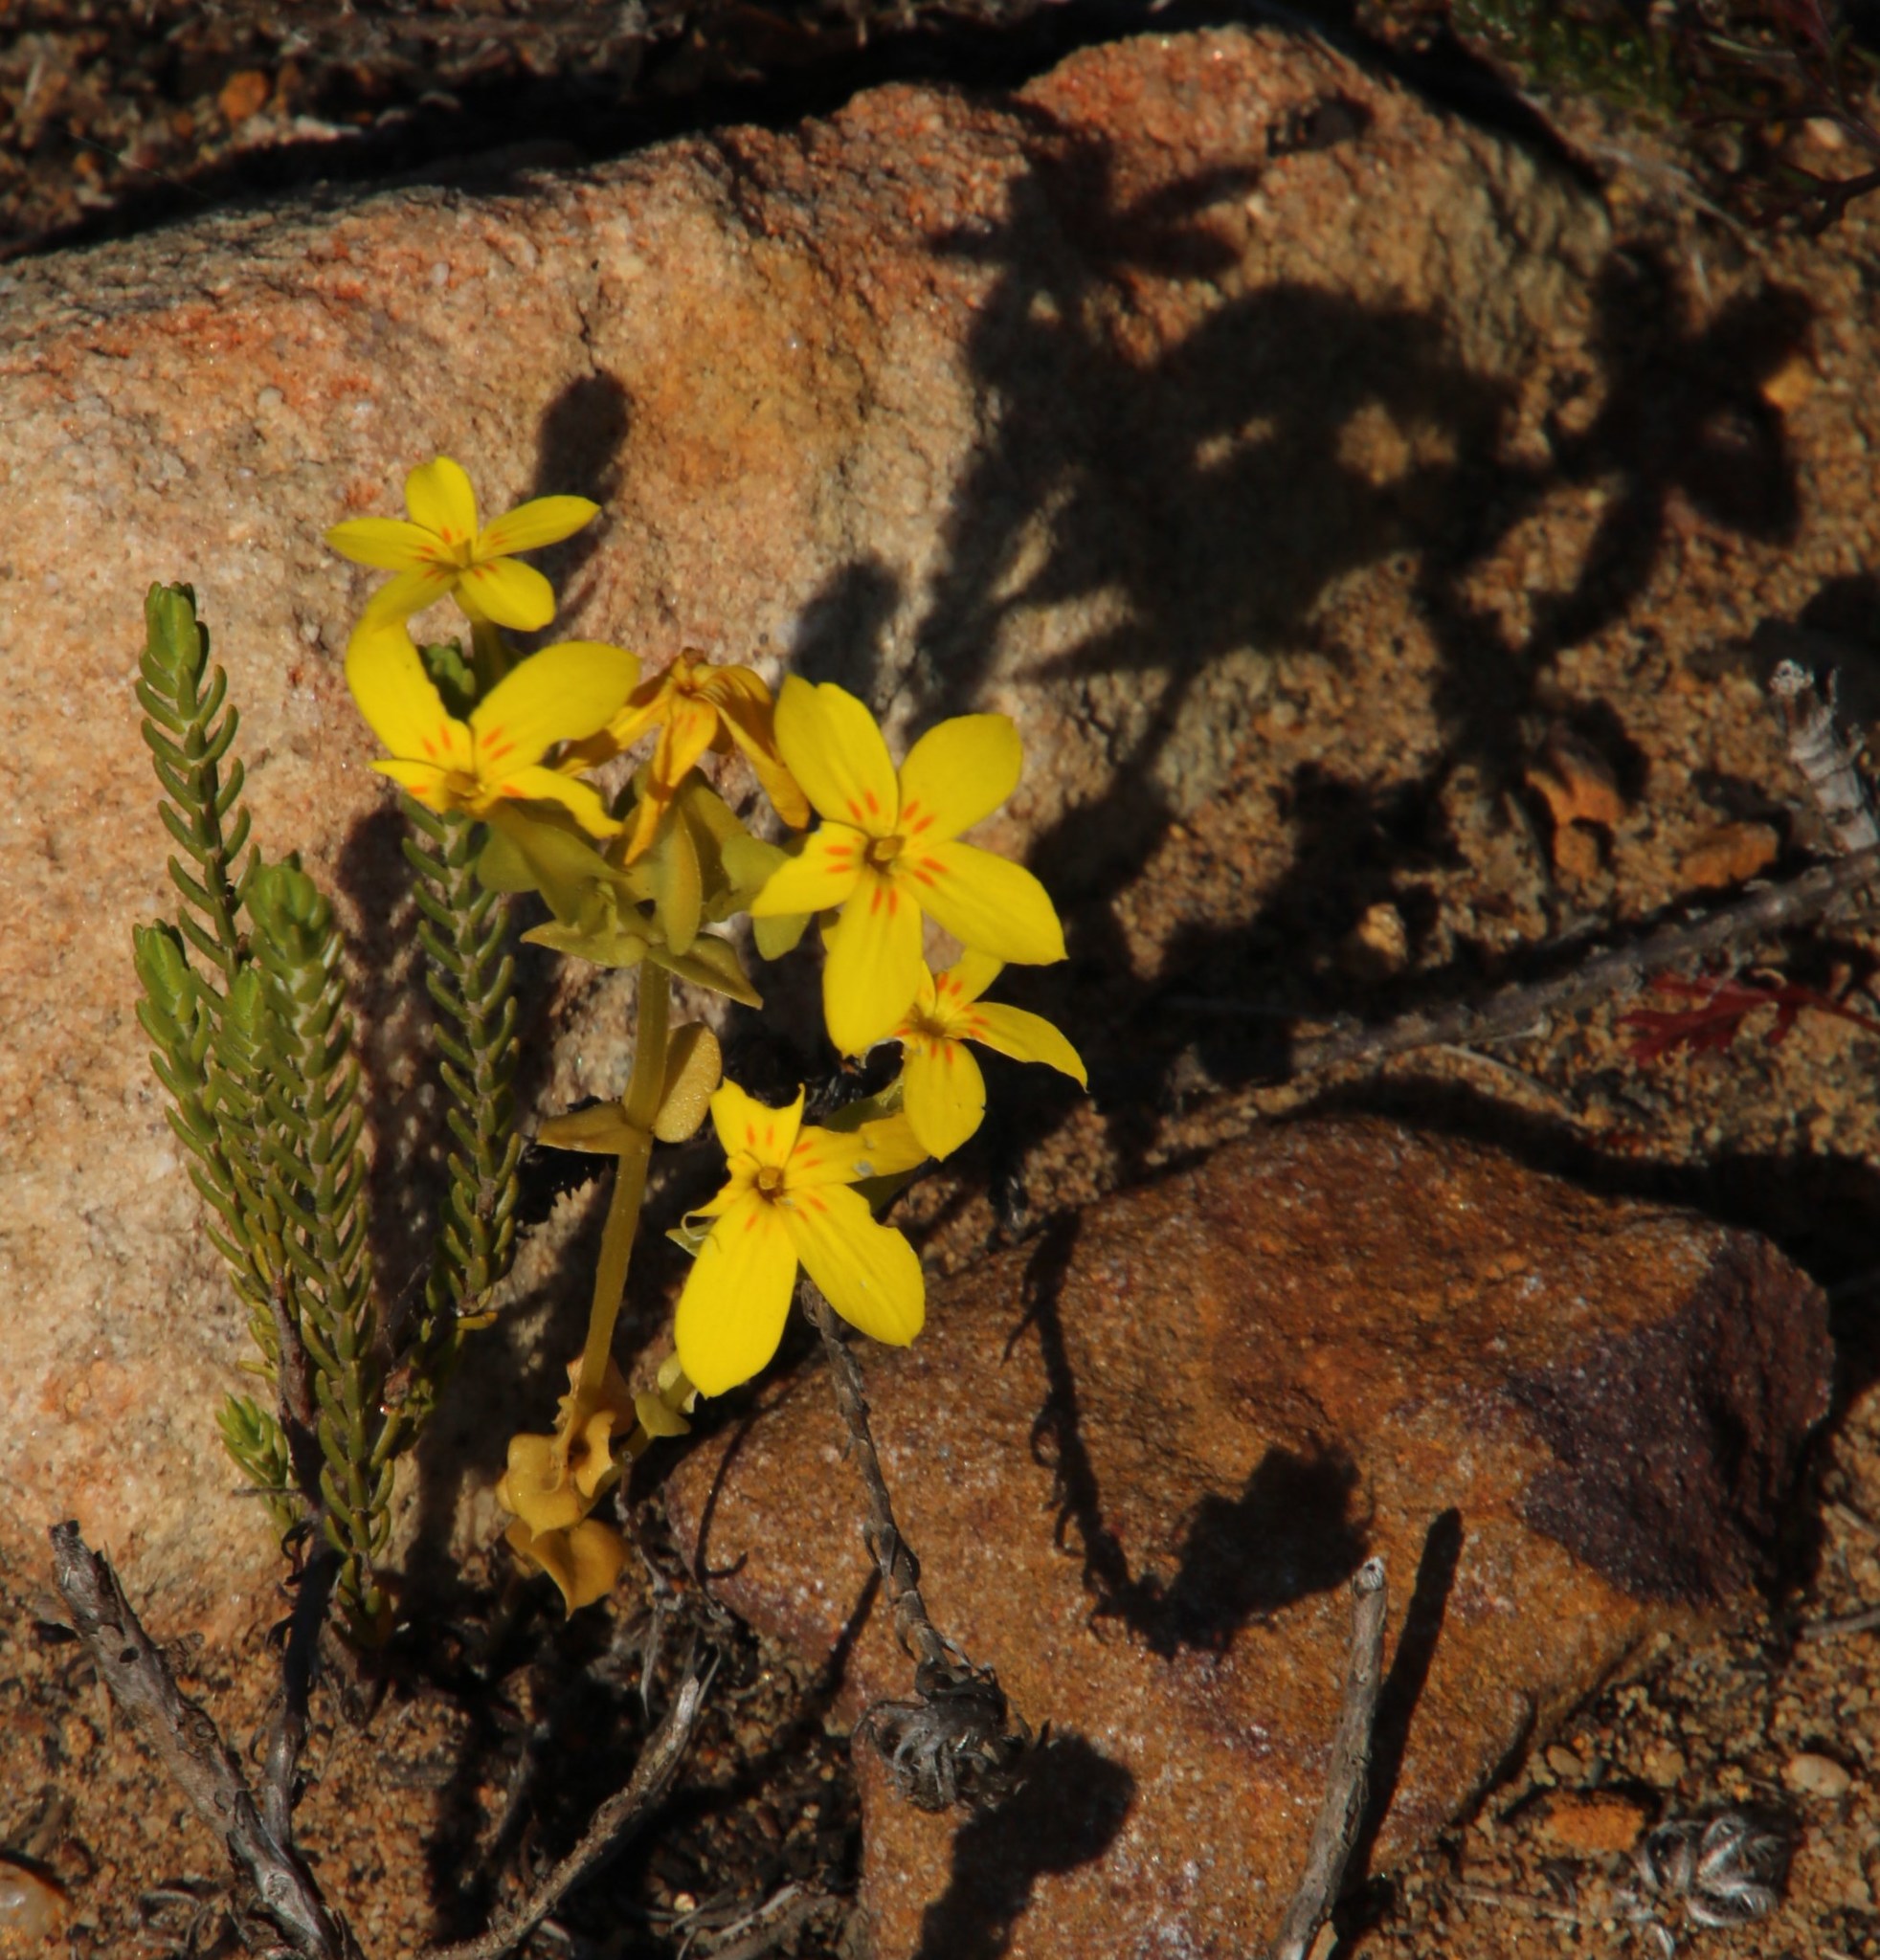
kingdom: Plantae
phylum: Tracheophyta
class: Magnoliopsida
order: Gentianales
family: Gentianaceae
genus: Sebaea
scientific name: Sebaea exacoides
